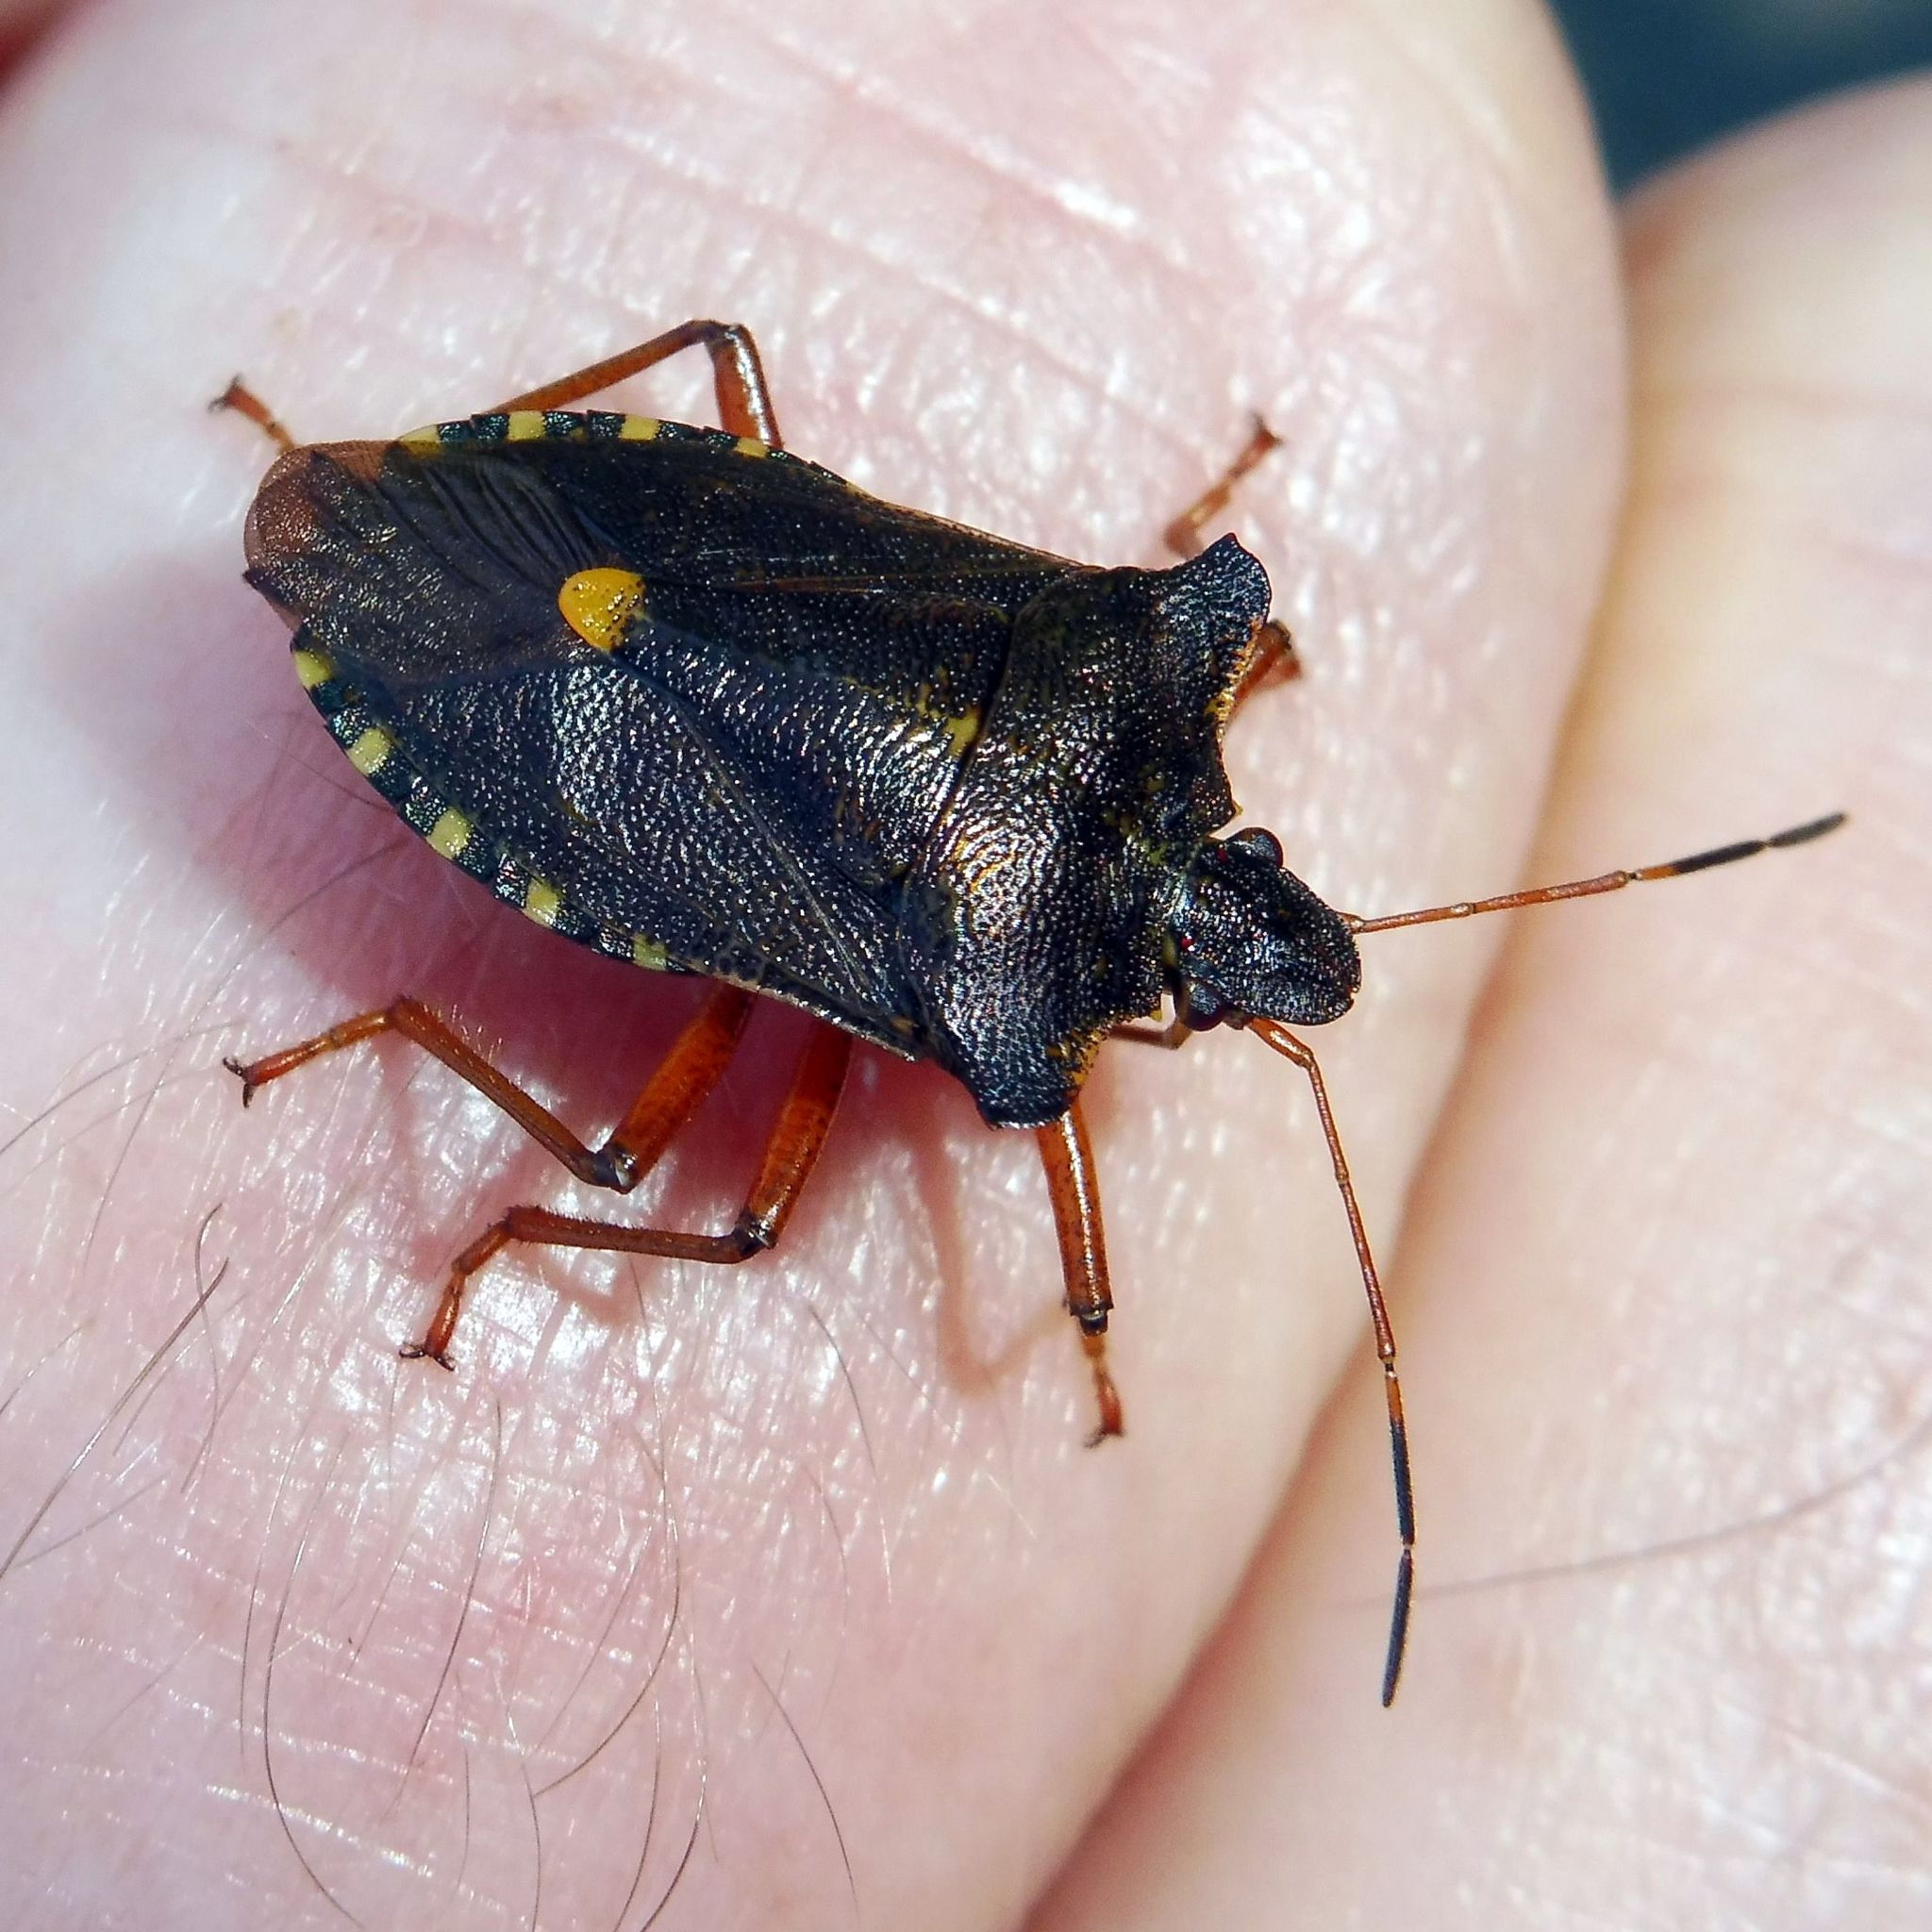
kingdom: Animalia
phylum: Arthropoda
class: Insecta
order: Hemiptera
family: Pentatomidae
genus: Pentatoma
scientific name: Pentatoma rufipes
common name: Forest bug
